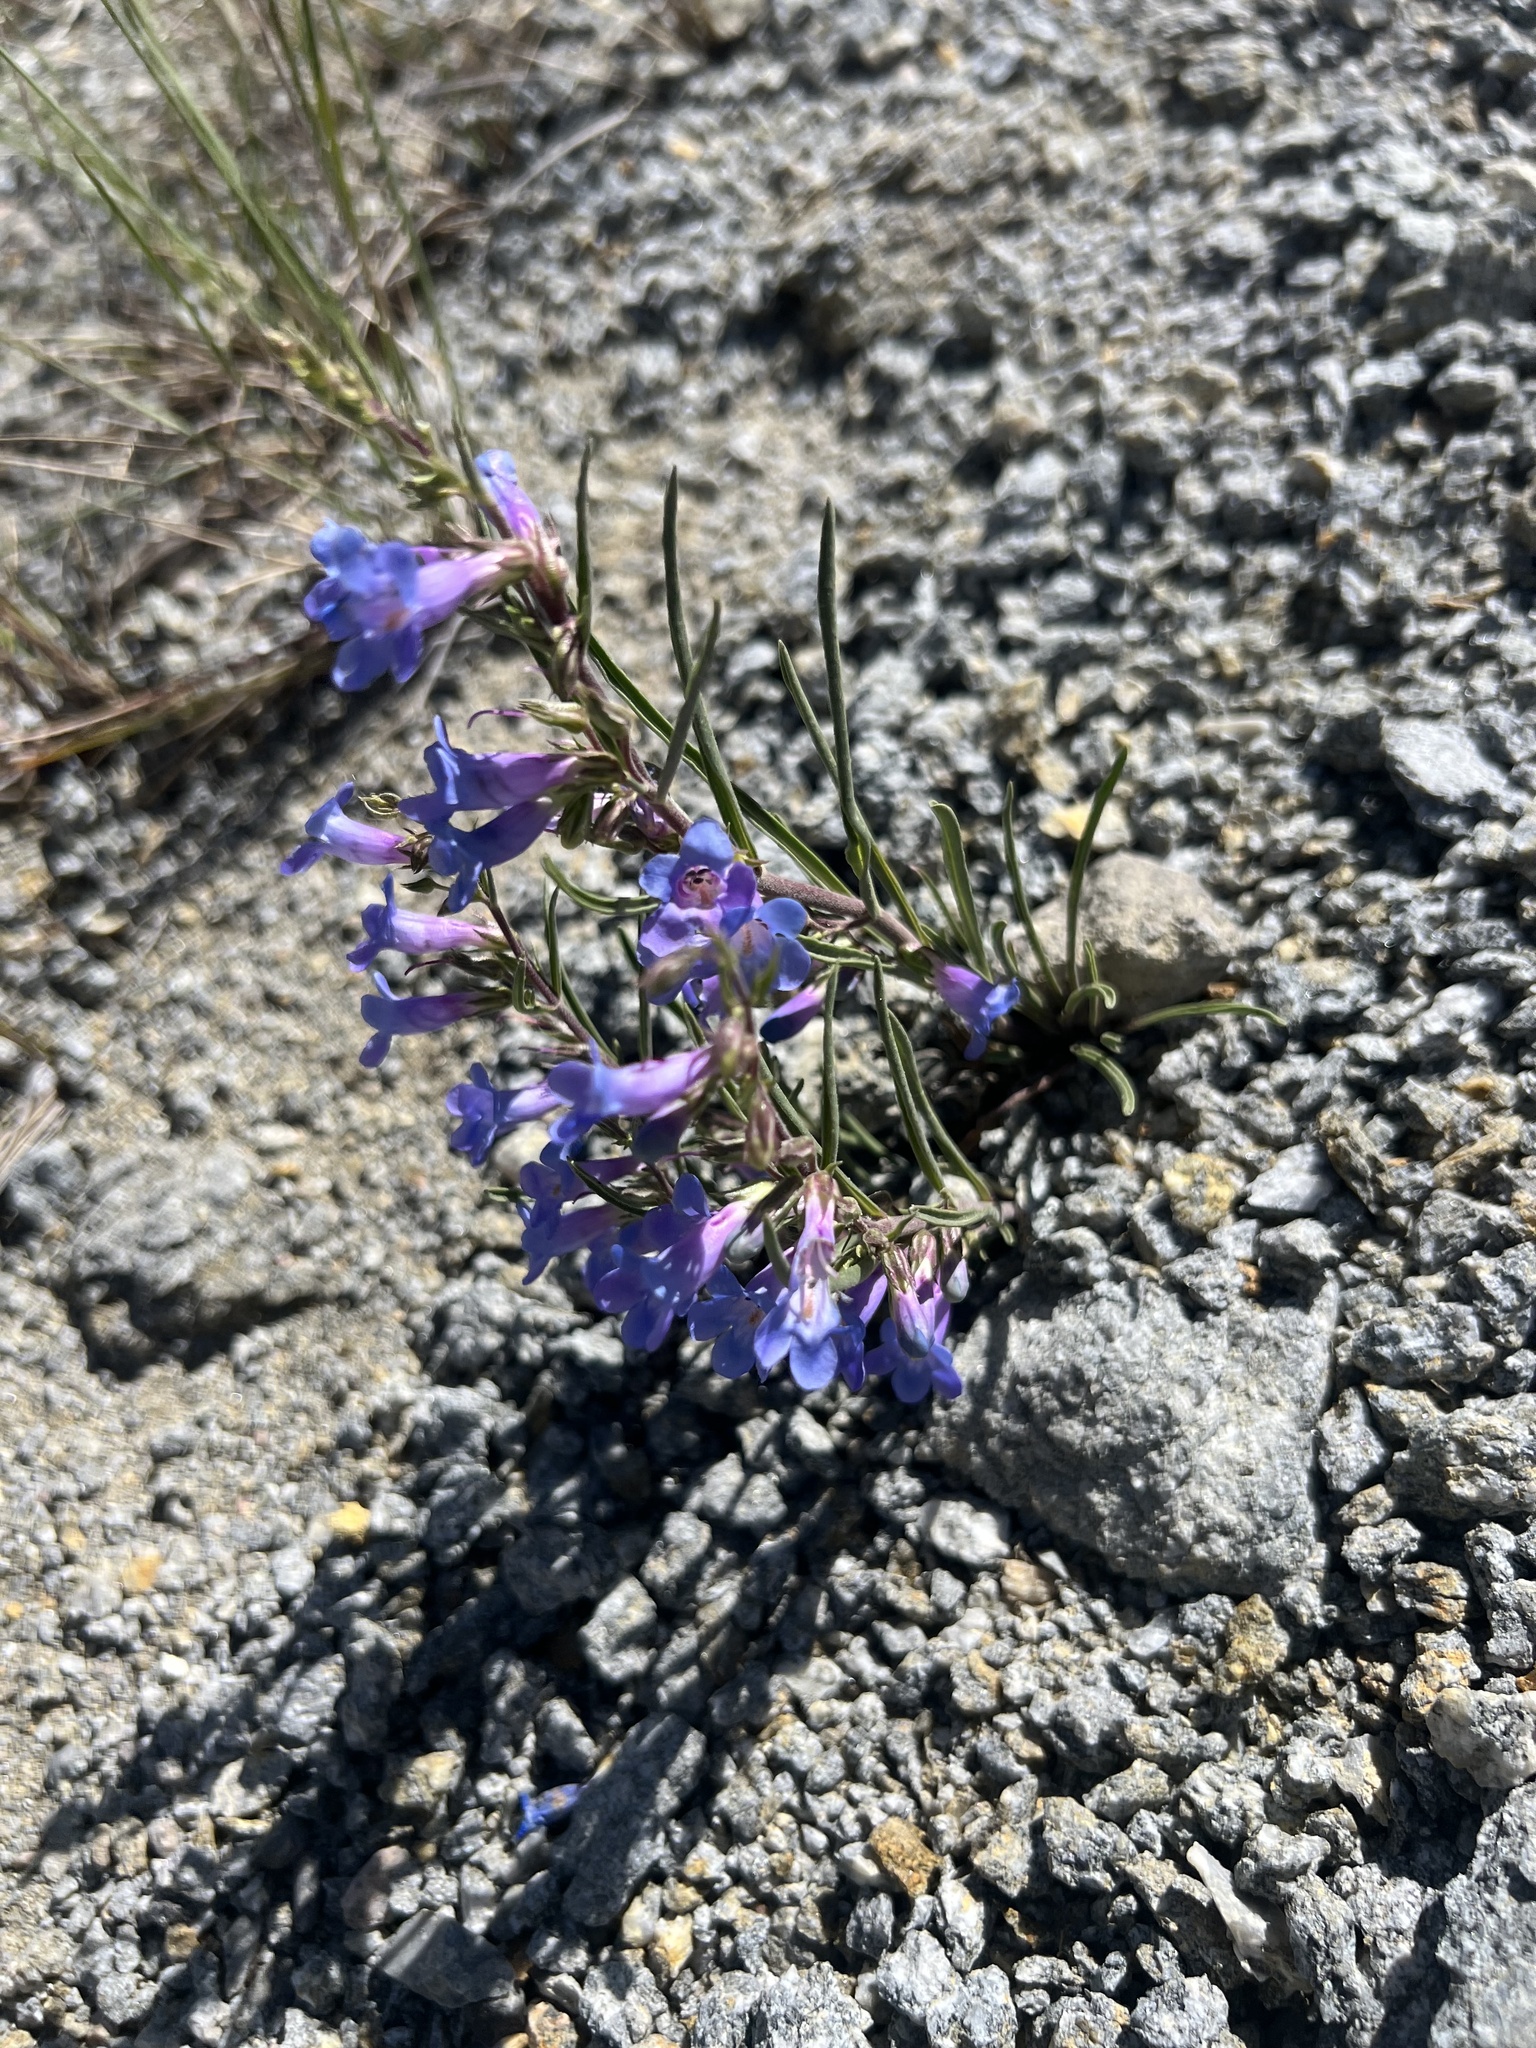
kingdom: Plantae
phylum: Tracheophyta
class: Magnoliopsida
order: Lamiales
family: Plantaginaceae
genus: Penstemon
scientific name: Penstemon penlandii
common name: Penland's beardtongue
